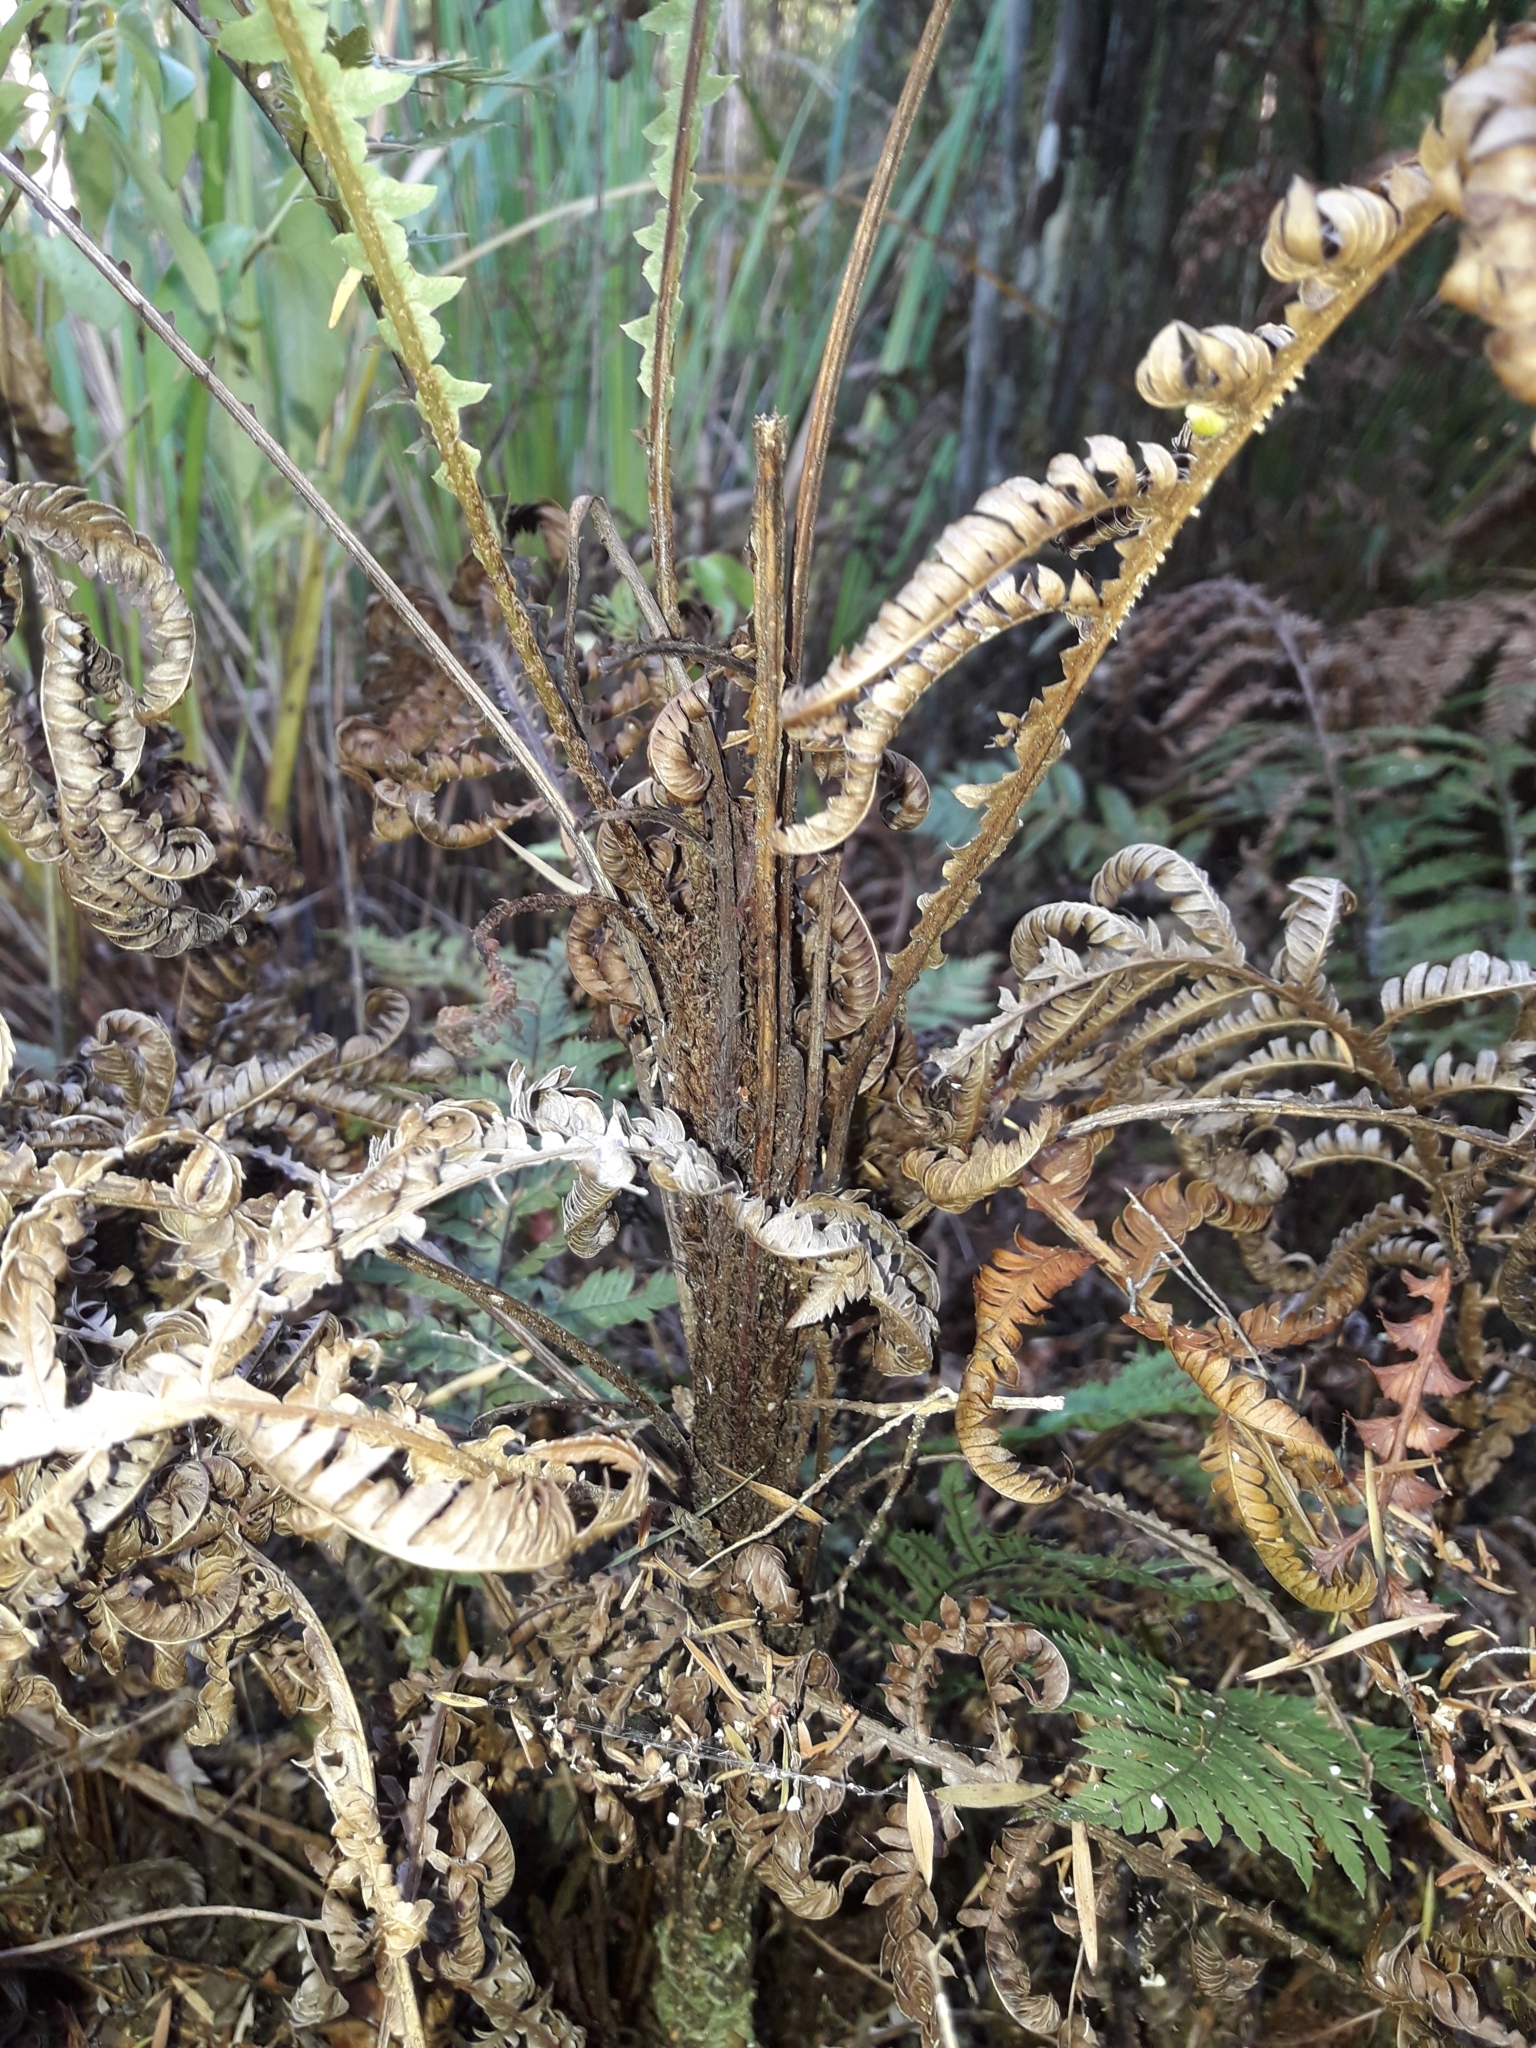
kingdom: Plantae
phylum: Tracheophyta
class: Polypodiopsida
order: Polypodiales
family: Blechnaceae
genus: Diploblechnum
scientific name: Diploblechnum fraseri
